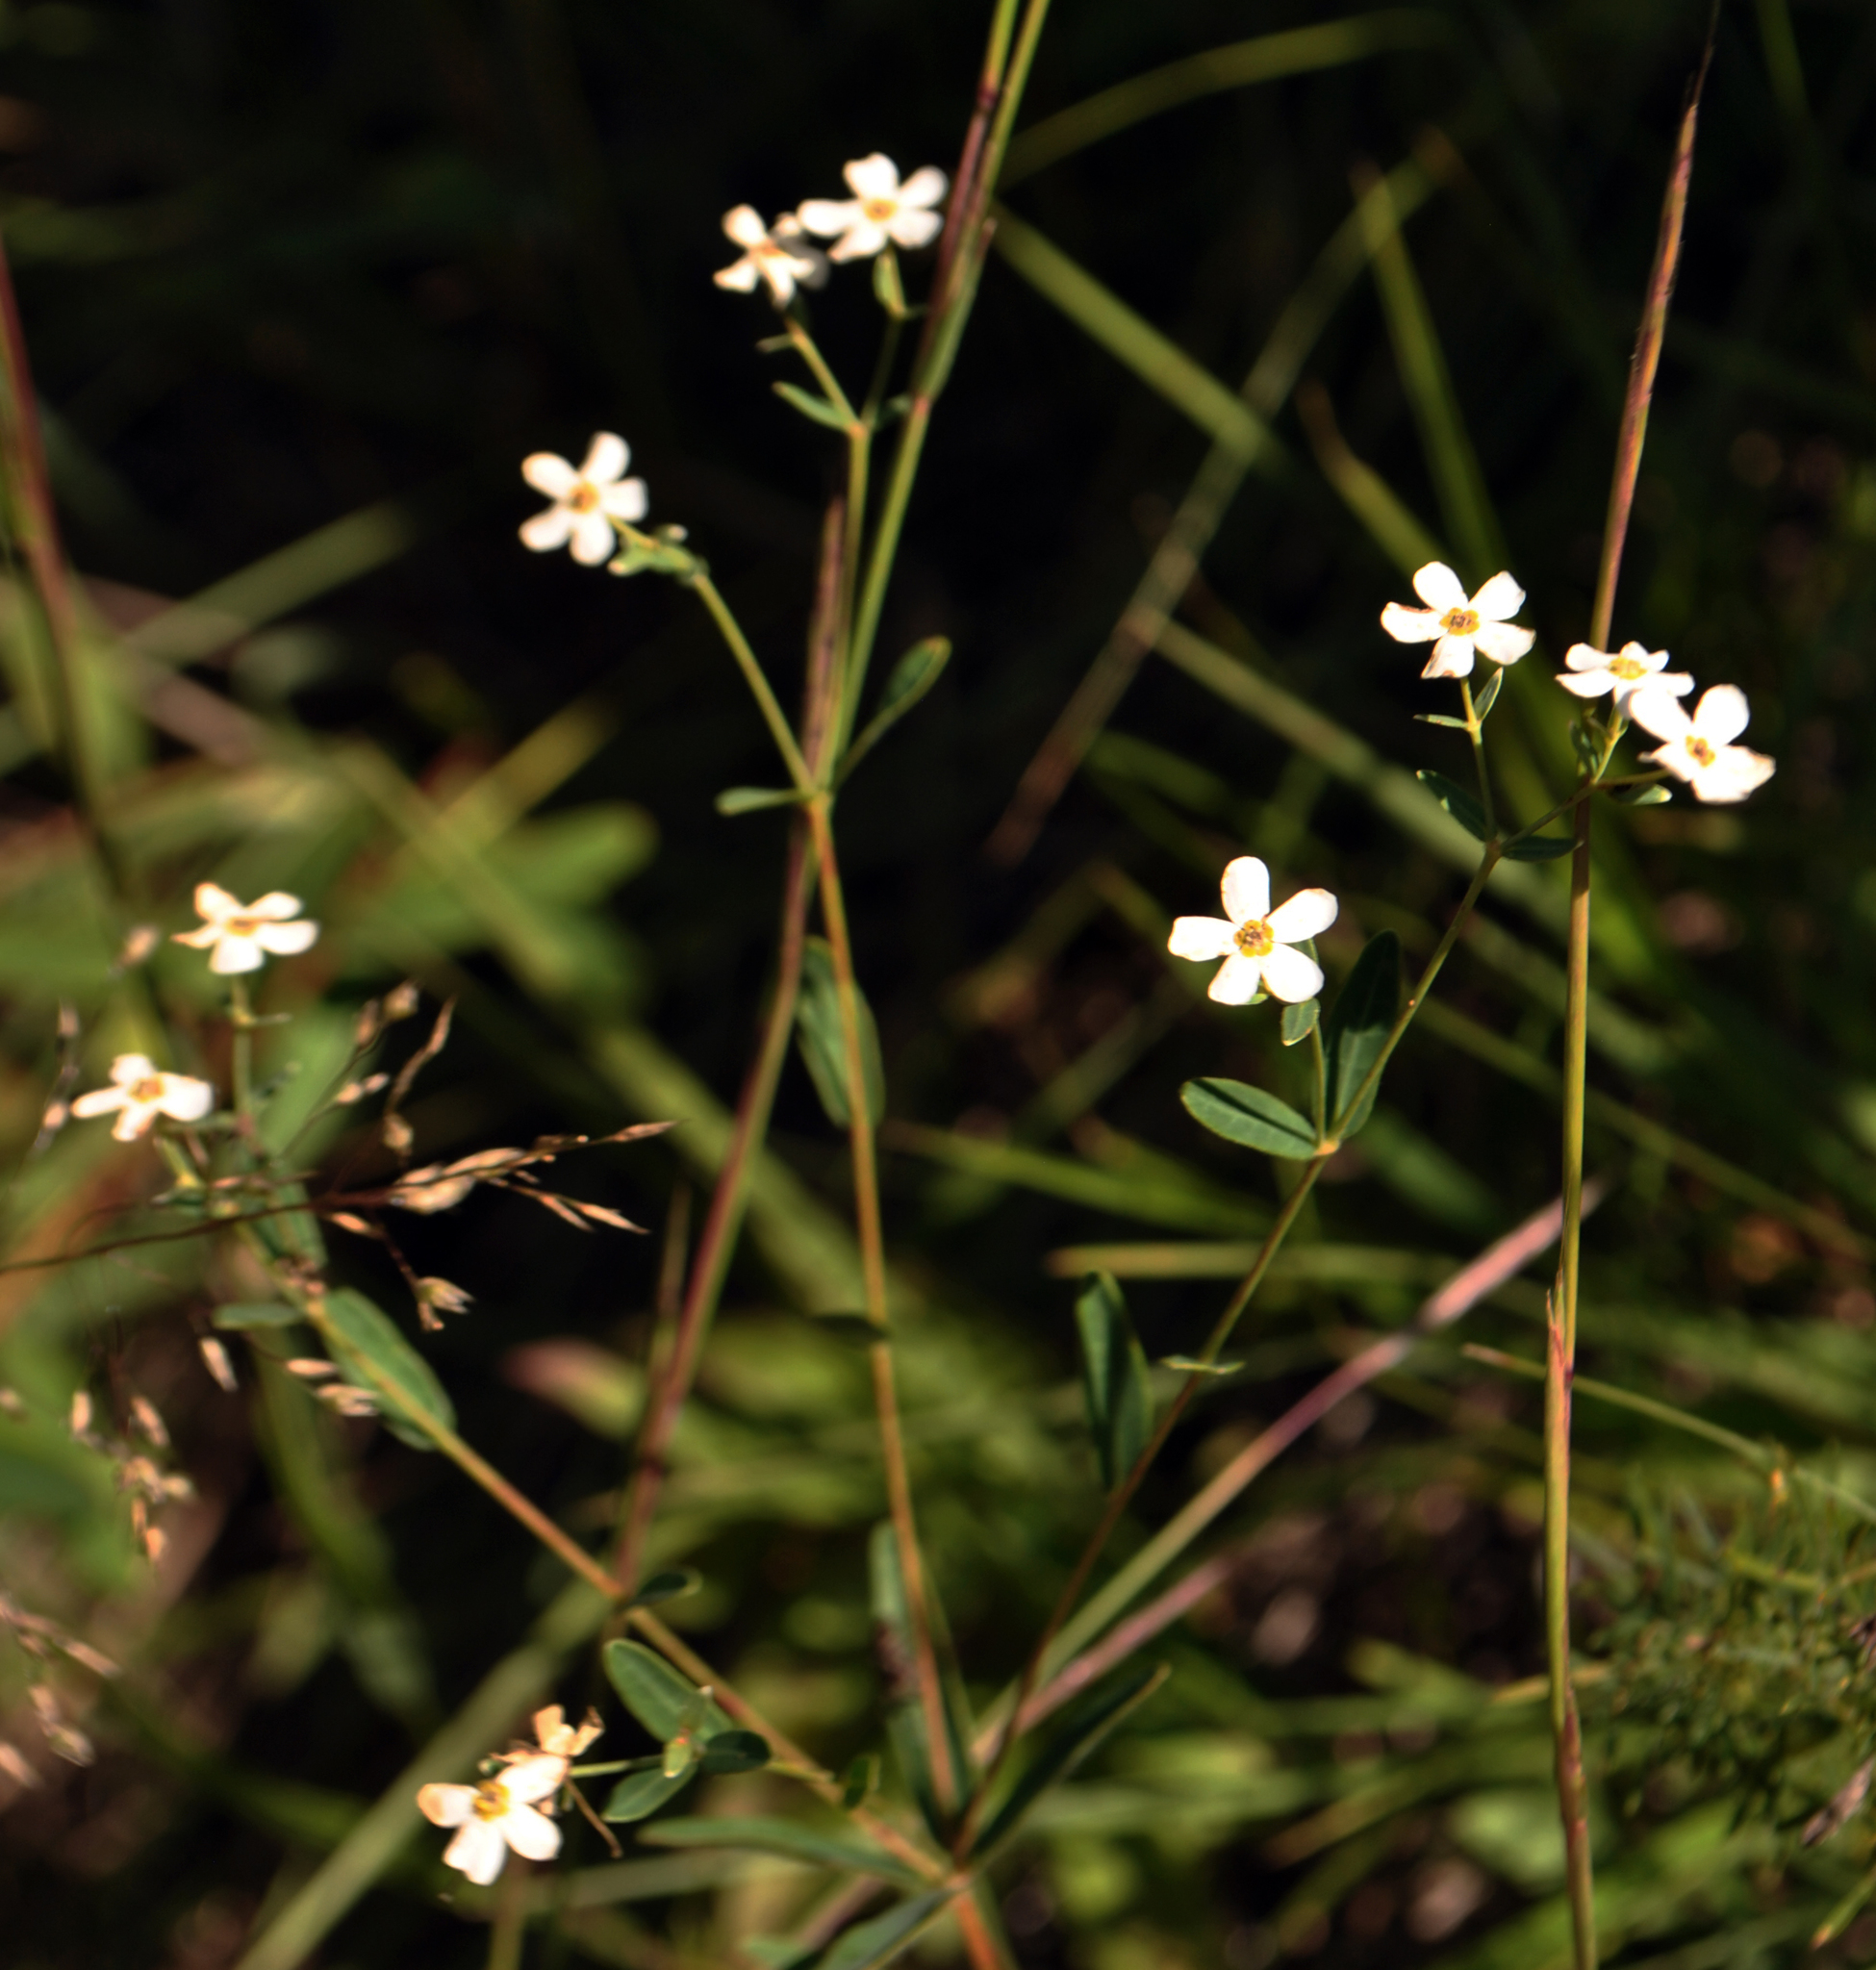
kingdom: Plantae
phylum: Tracheophyta
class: Magnoliopsida
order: Malpighiales
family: Euphorbiaceae
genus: Euphorbia
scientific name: Euphorbia corollata
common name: Flowering spurge
